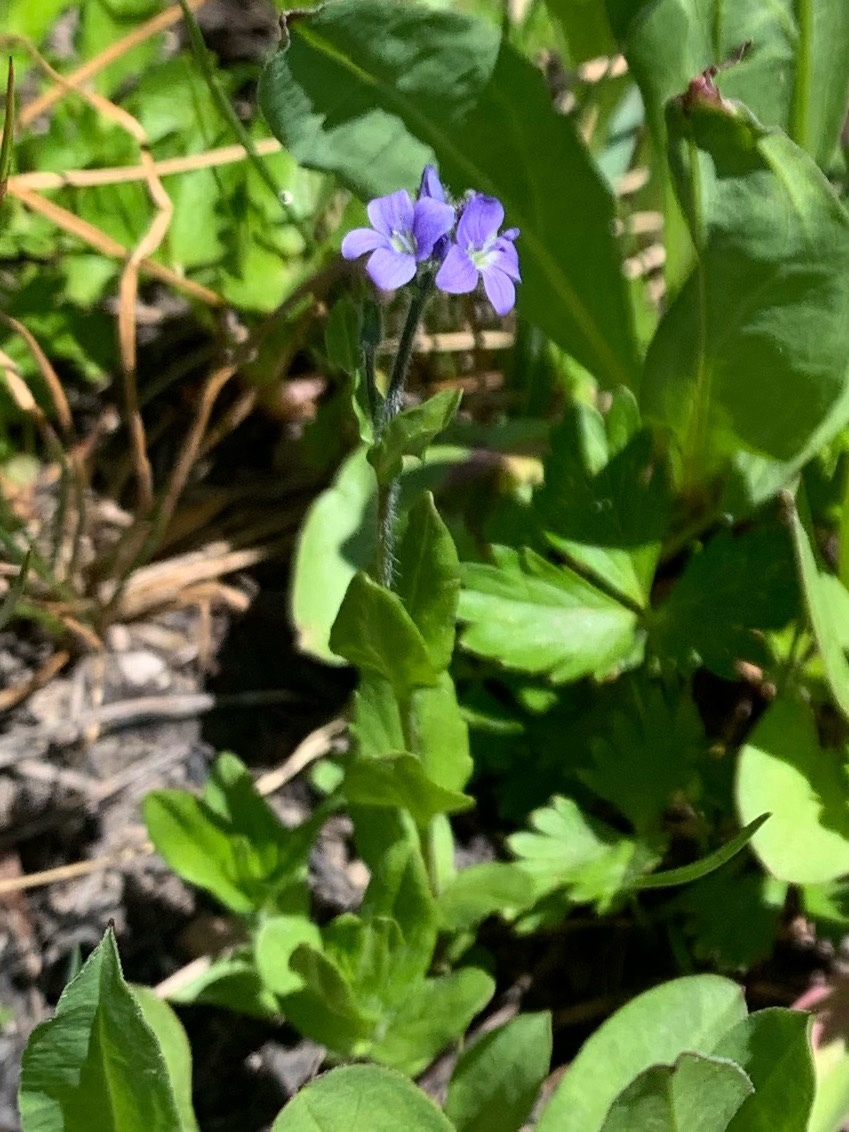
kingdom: Plantae
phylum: Tracheophyta
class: Magnoliopsida
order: Lamiales
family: Plantaginaceae
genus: Veronica
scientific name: Veronica wormskjoldii
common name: American alpine speedwell
